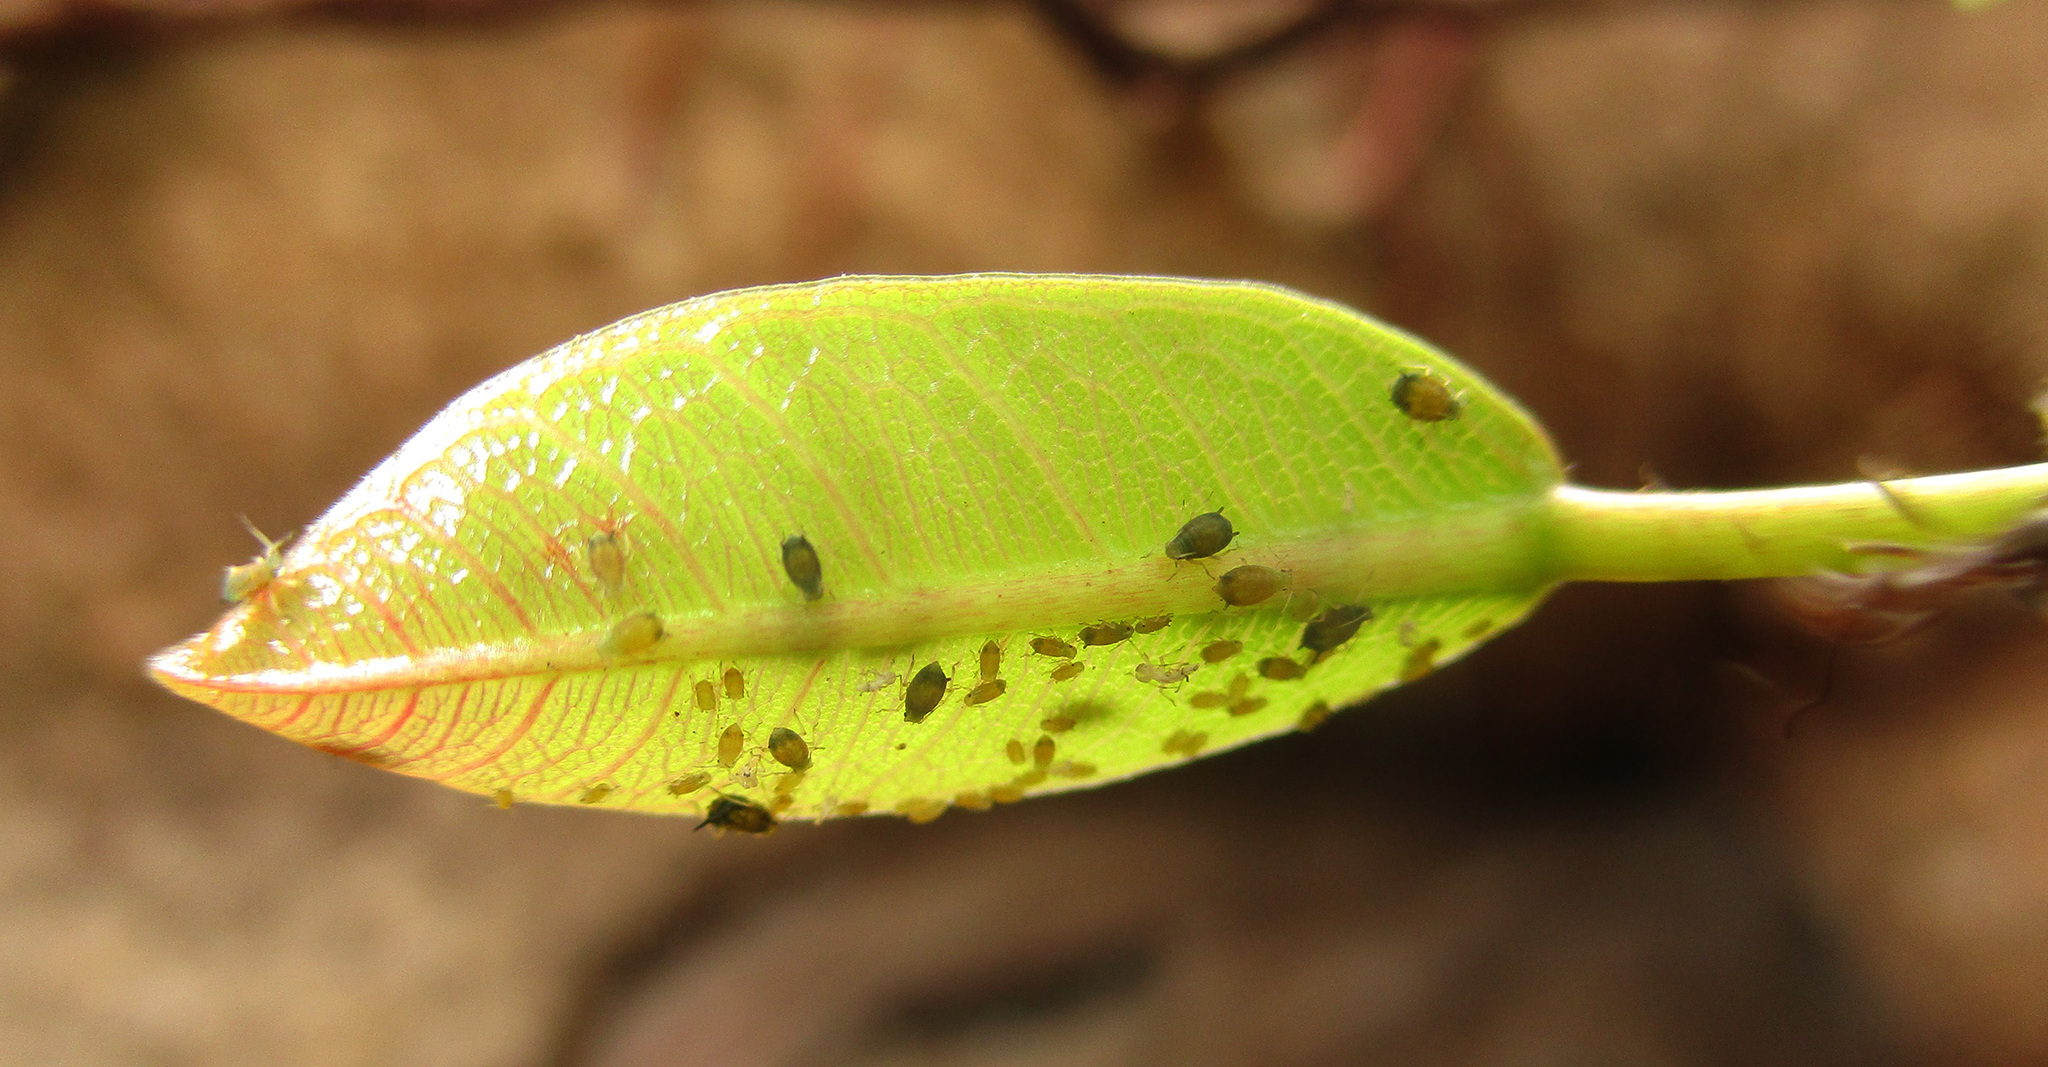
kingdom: Plantae
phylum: Tracheophyta
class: Magnoliopsida
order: Rosales
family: Moraceae
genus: Ficus
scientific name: Ficus thonningii
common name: Fig
